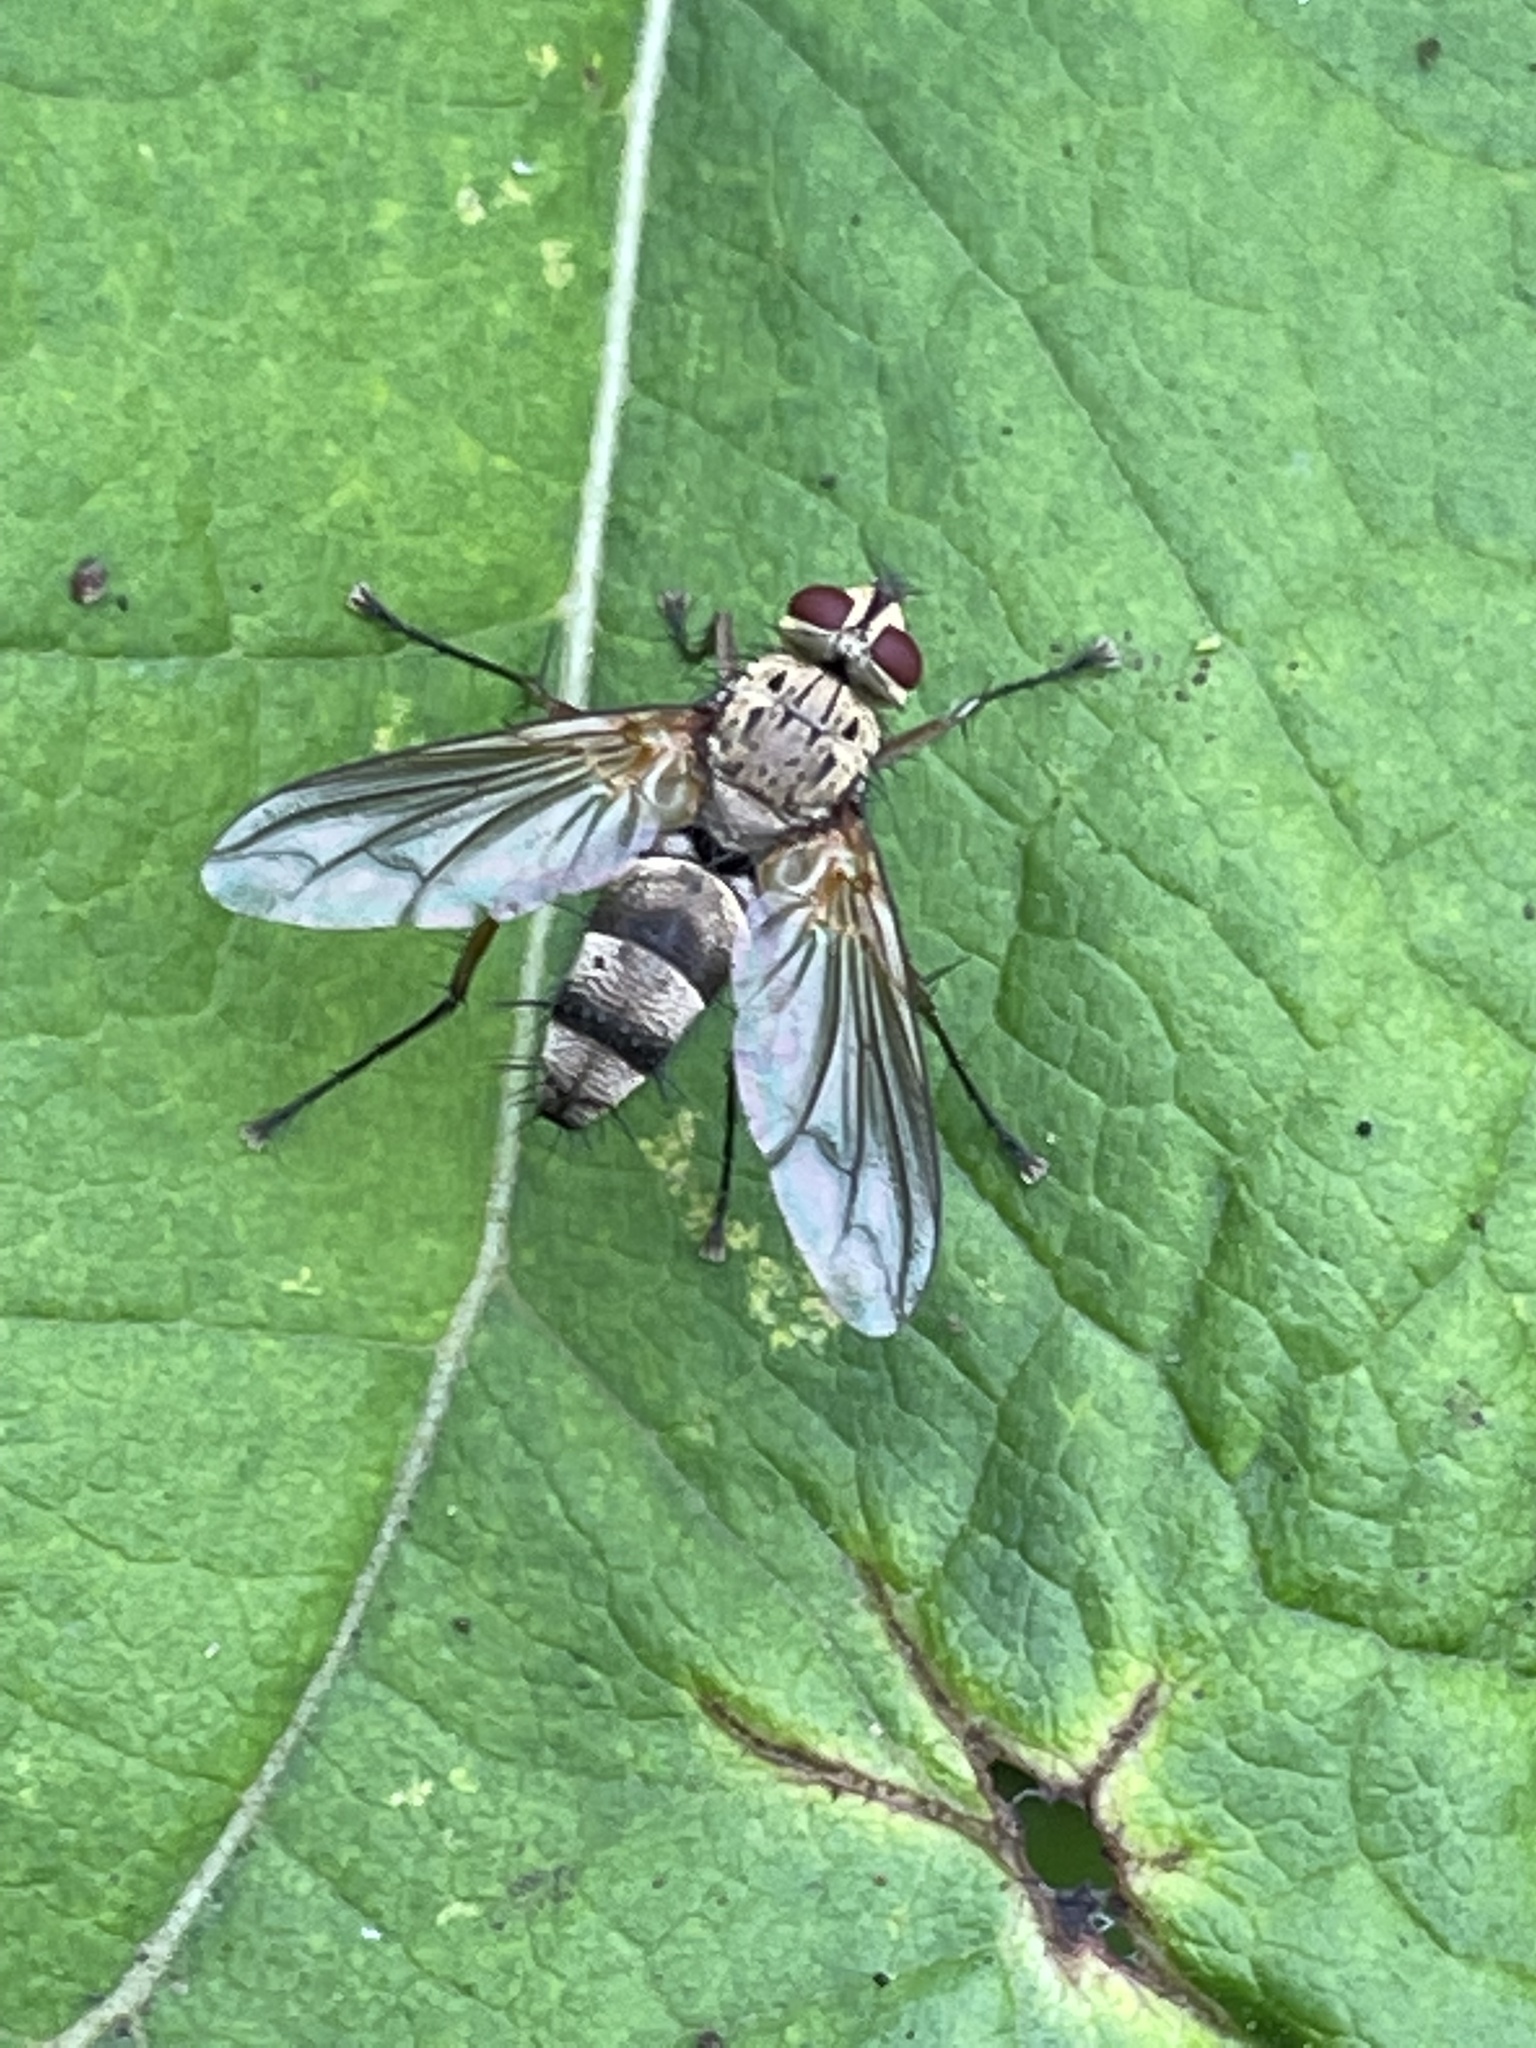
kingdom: Animalia
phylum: Arthropoda
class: Insecta
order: Diptera
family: Tachinidae
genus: Dexiosoma
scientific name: Dexiosoma caninum
